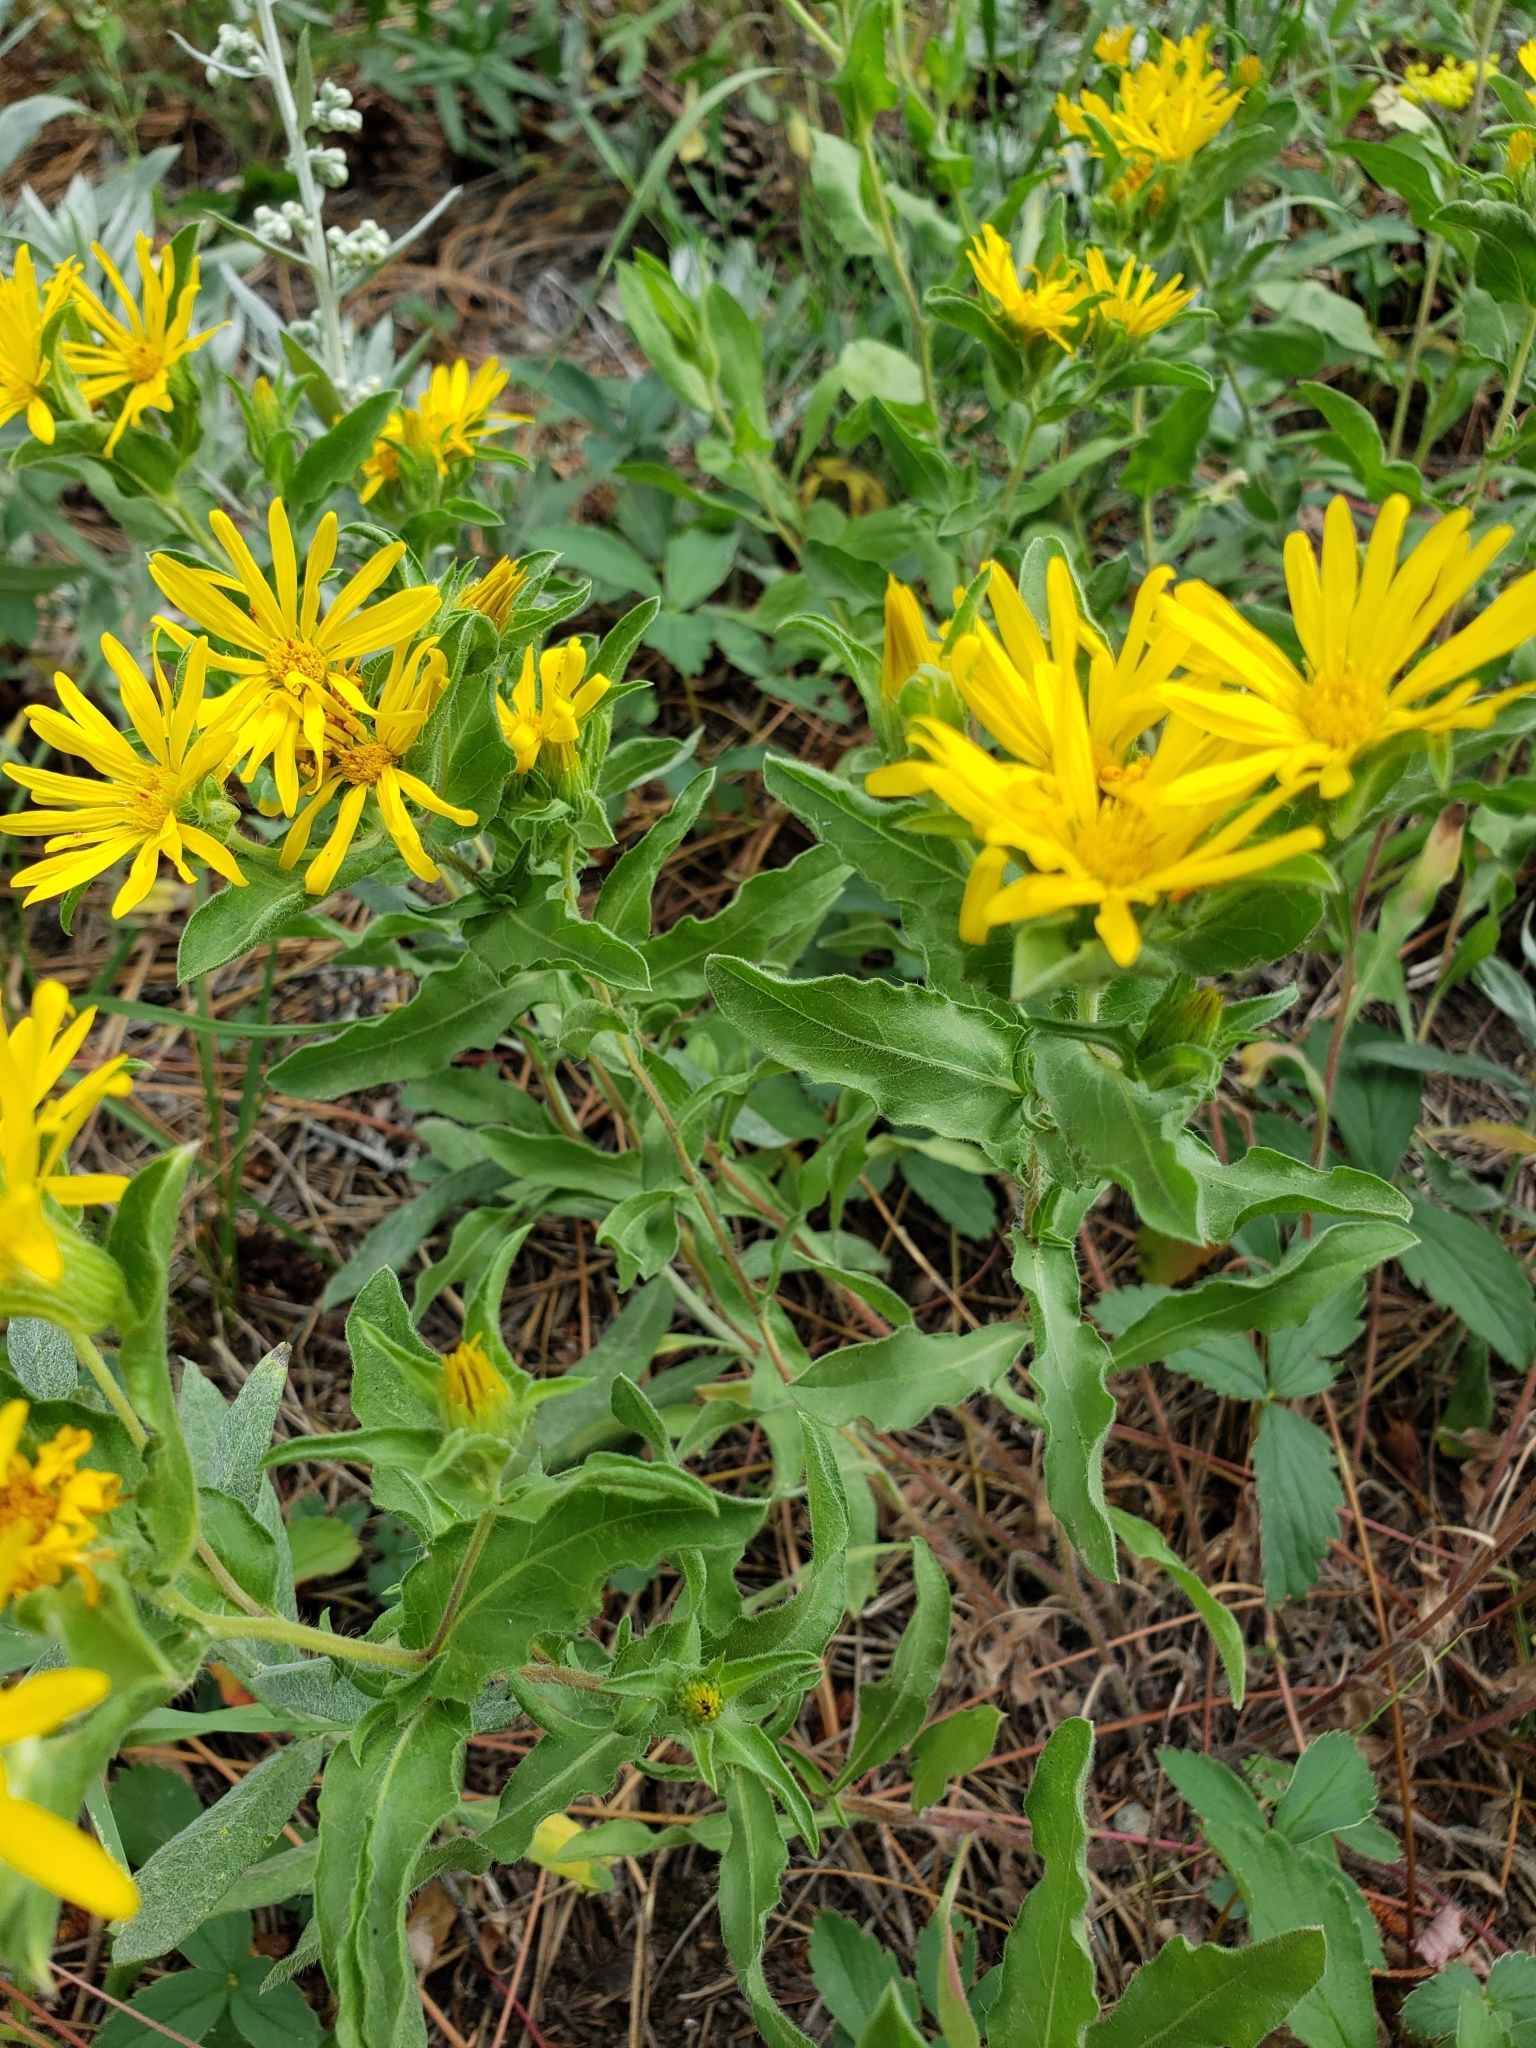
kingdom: Plantae
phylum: Tracheophyta
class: Magnoliopsida
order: Asterales
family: Asteraceae
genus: Heterotheca
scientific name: Heterotheca villosa
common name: Hairy false goldenaster
